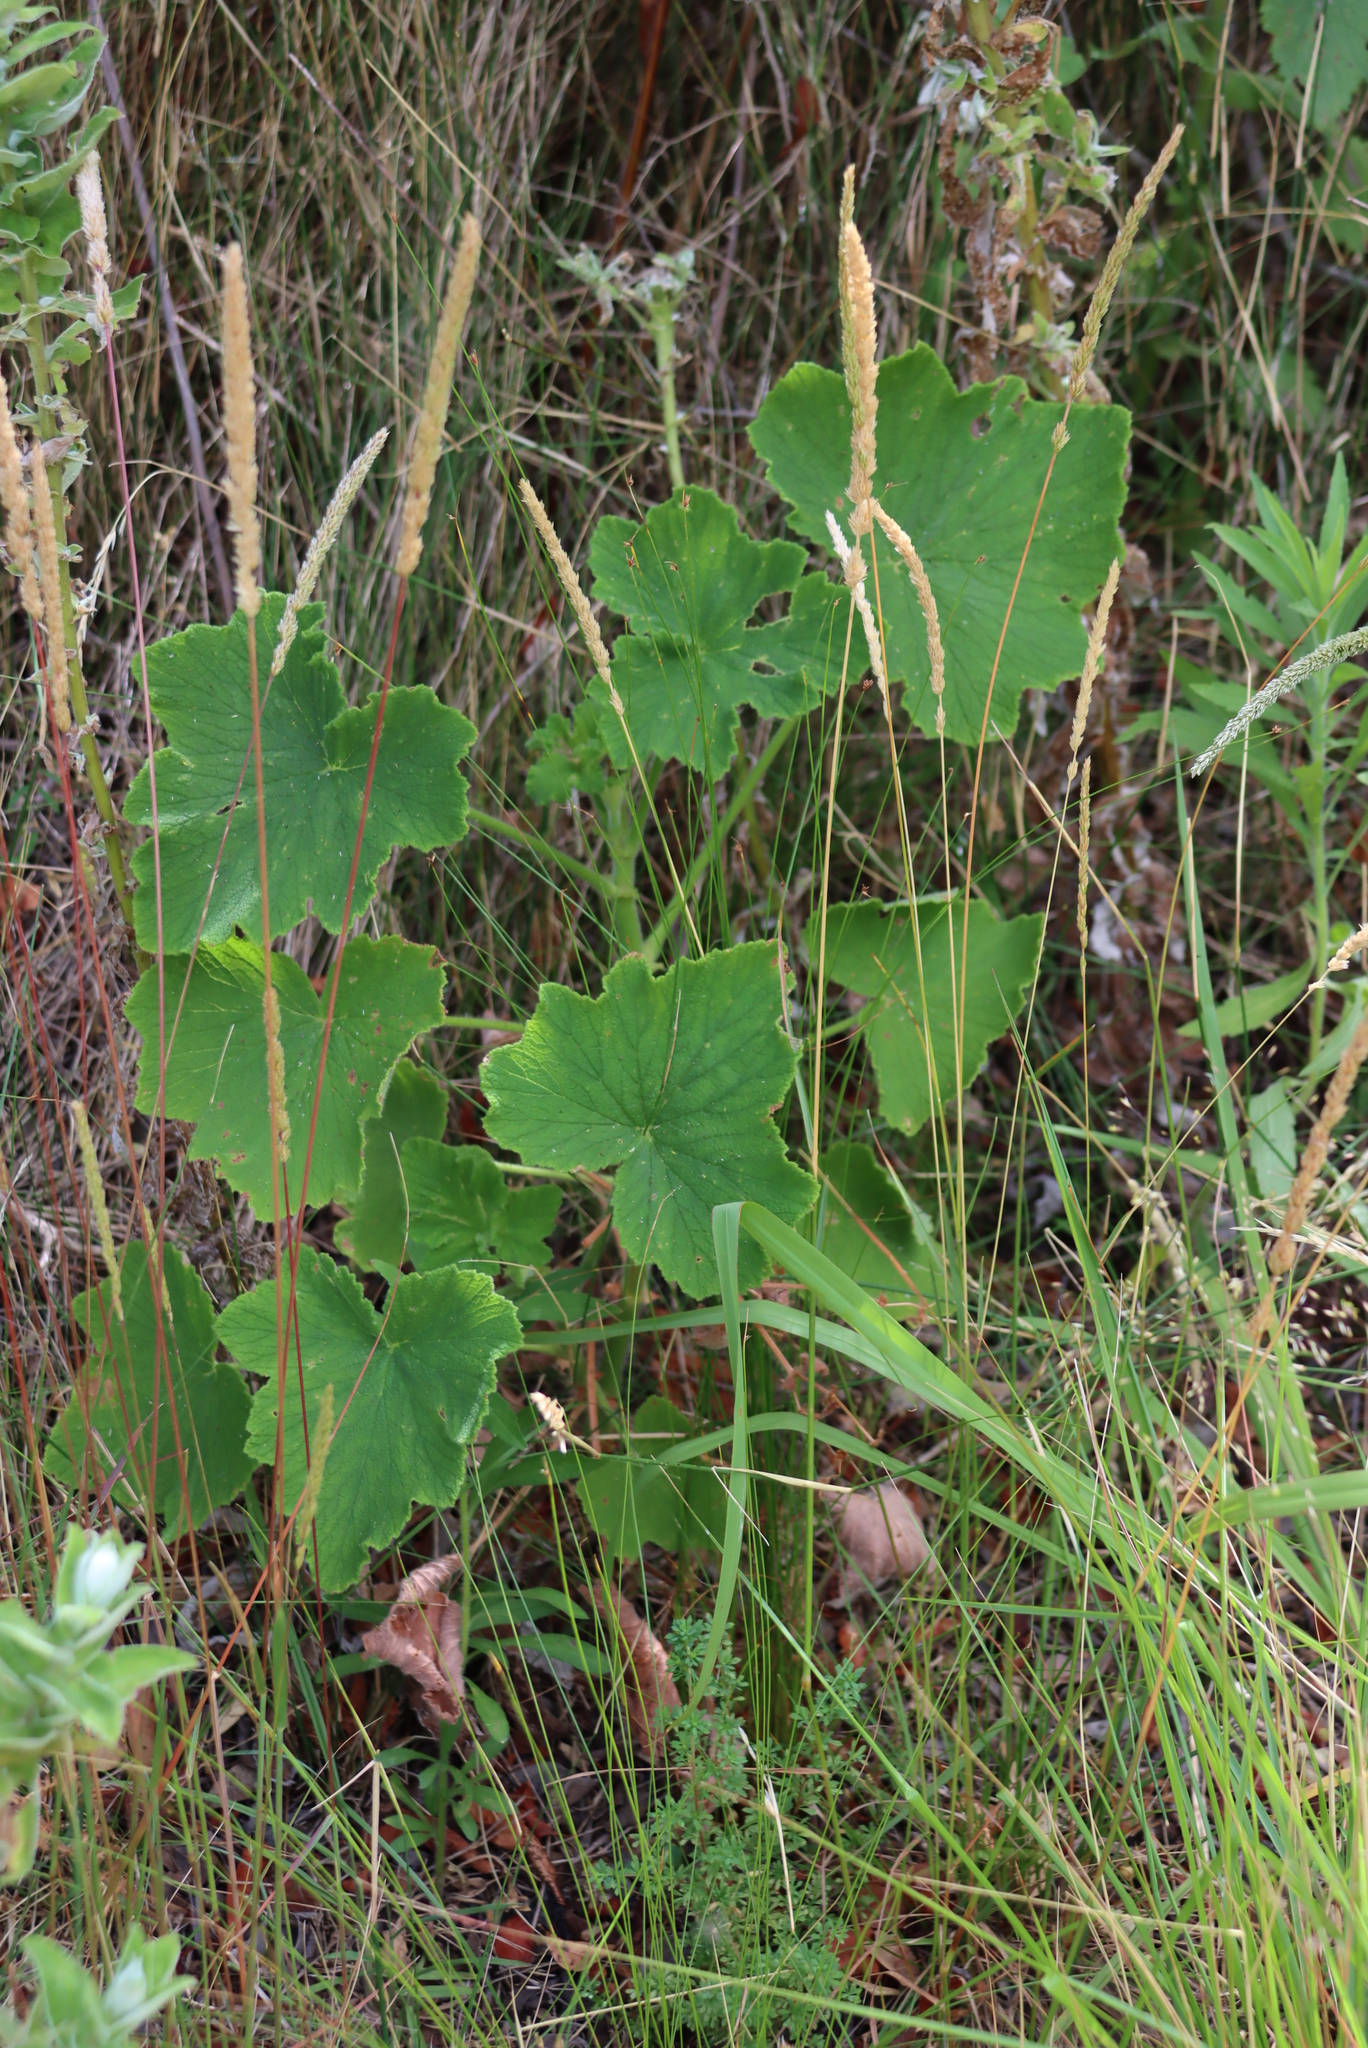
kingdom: Plantae
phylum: Tracheophyta
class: Liliopsida
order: Poales
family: Poaceae
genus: Koeleria
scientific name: Koeleria capensis
